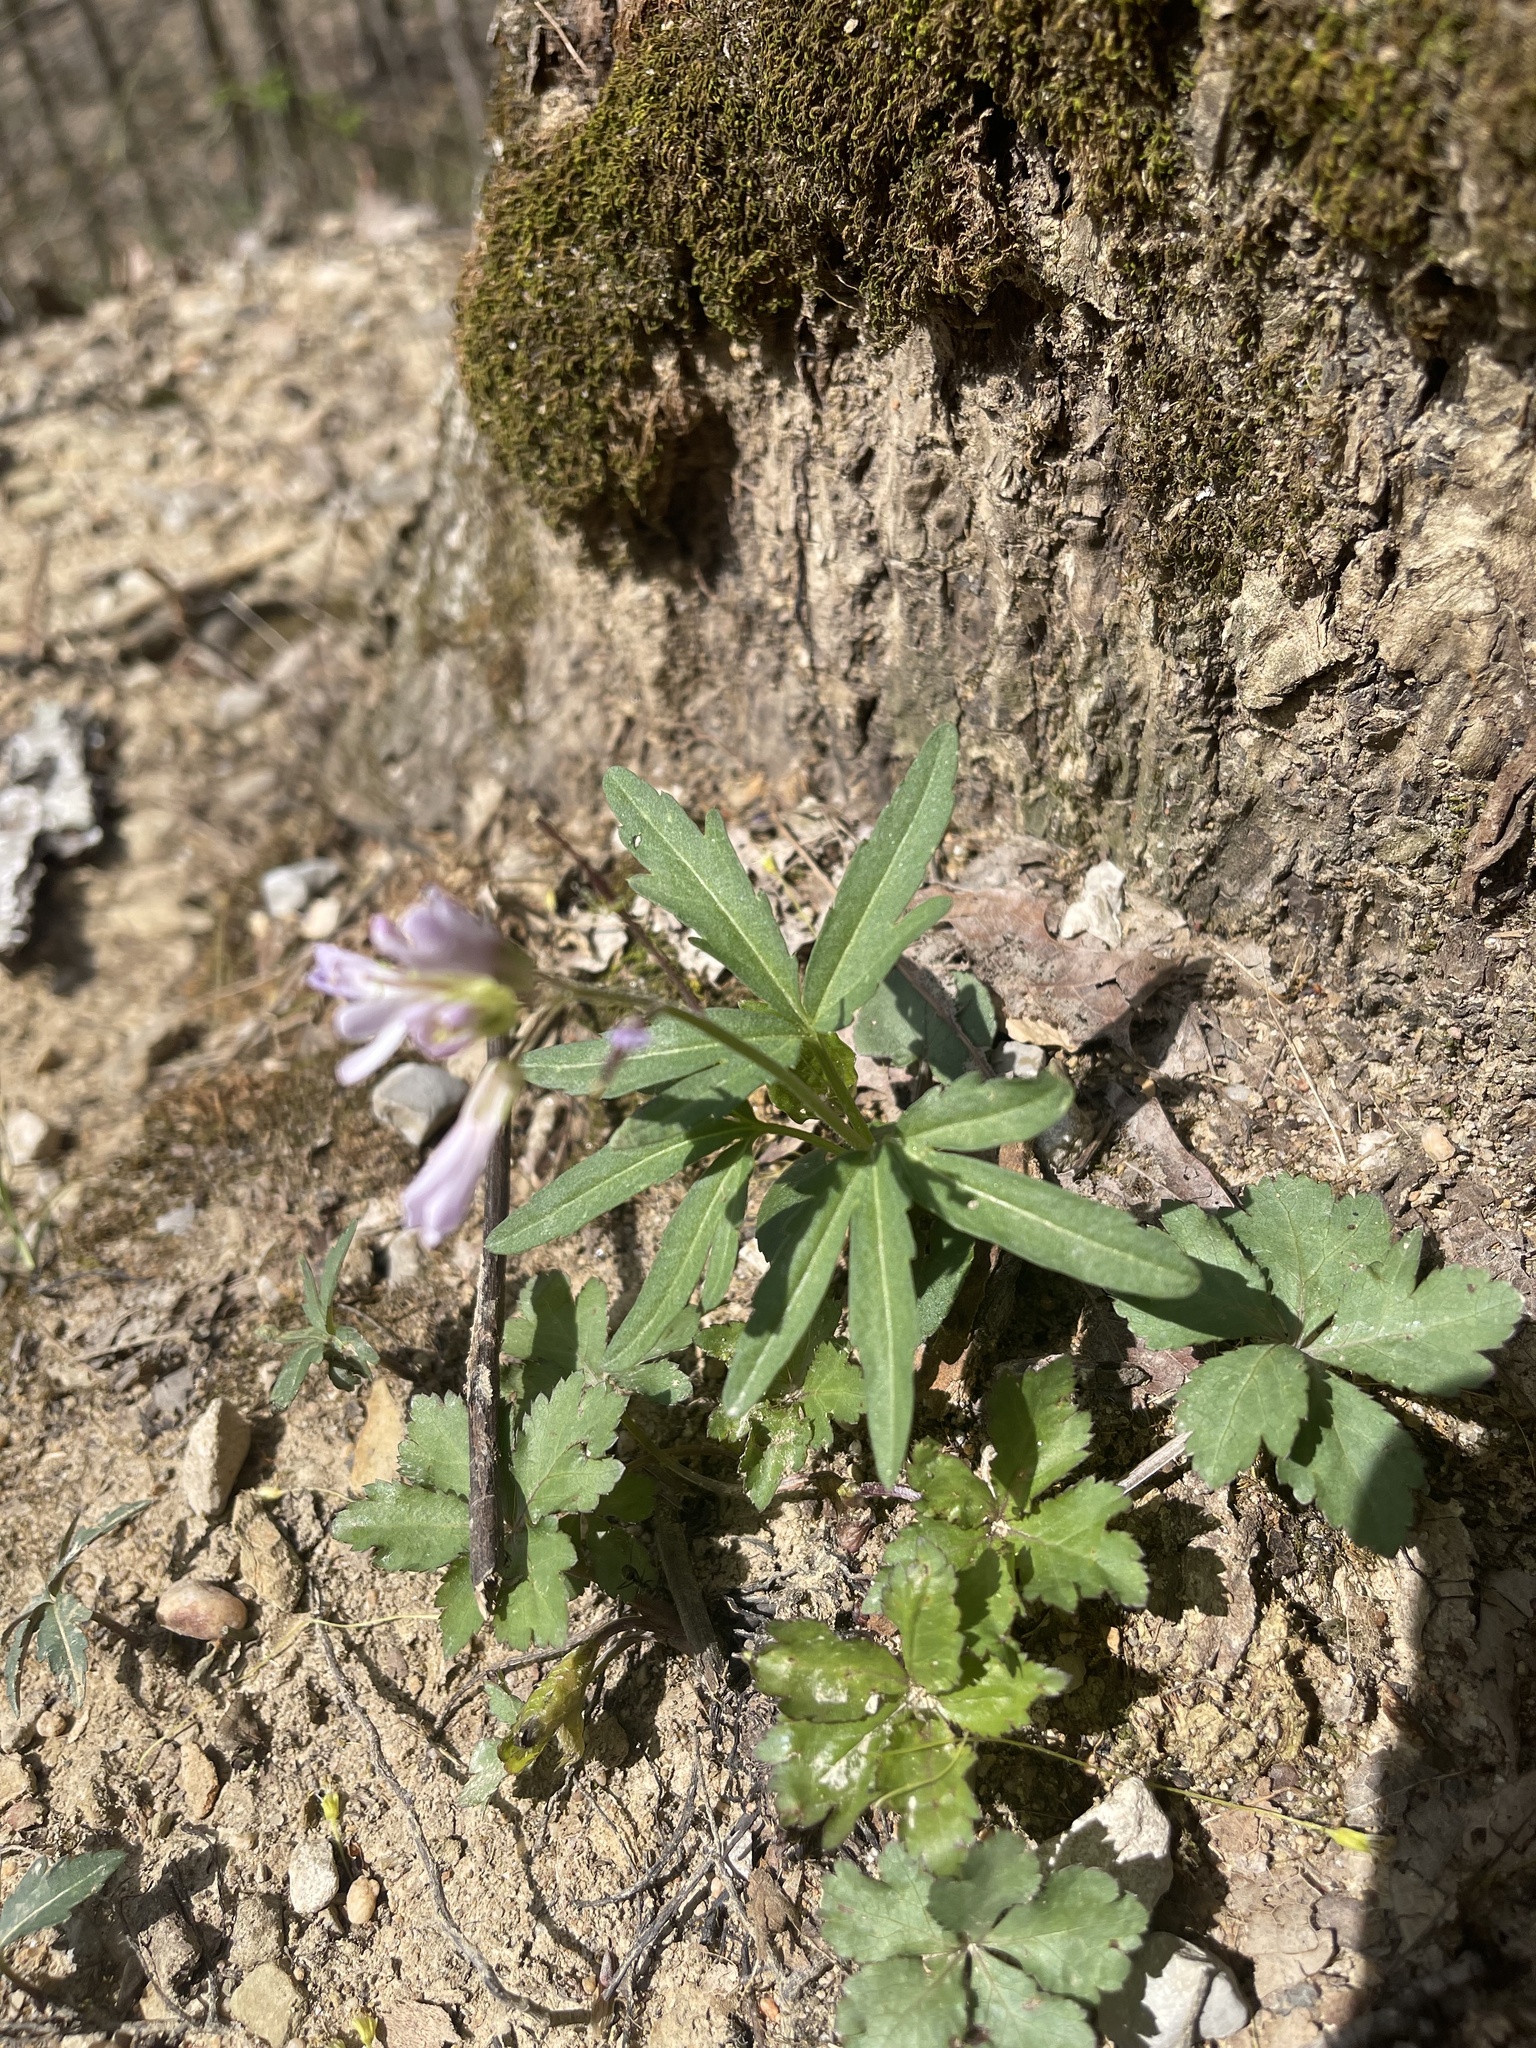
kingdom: Plantae
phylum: Tracheophyta
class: Magnoliopsida
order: Brassicales
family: Brassicaceae
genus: Cardamine
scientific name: Cardamine concatenata
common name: Cut-leaf toothcup
